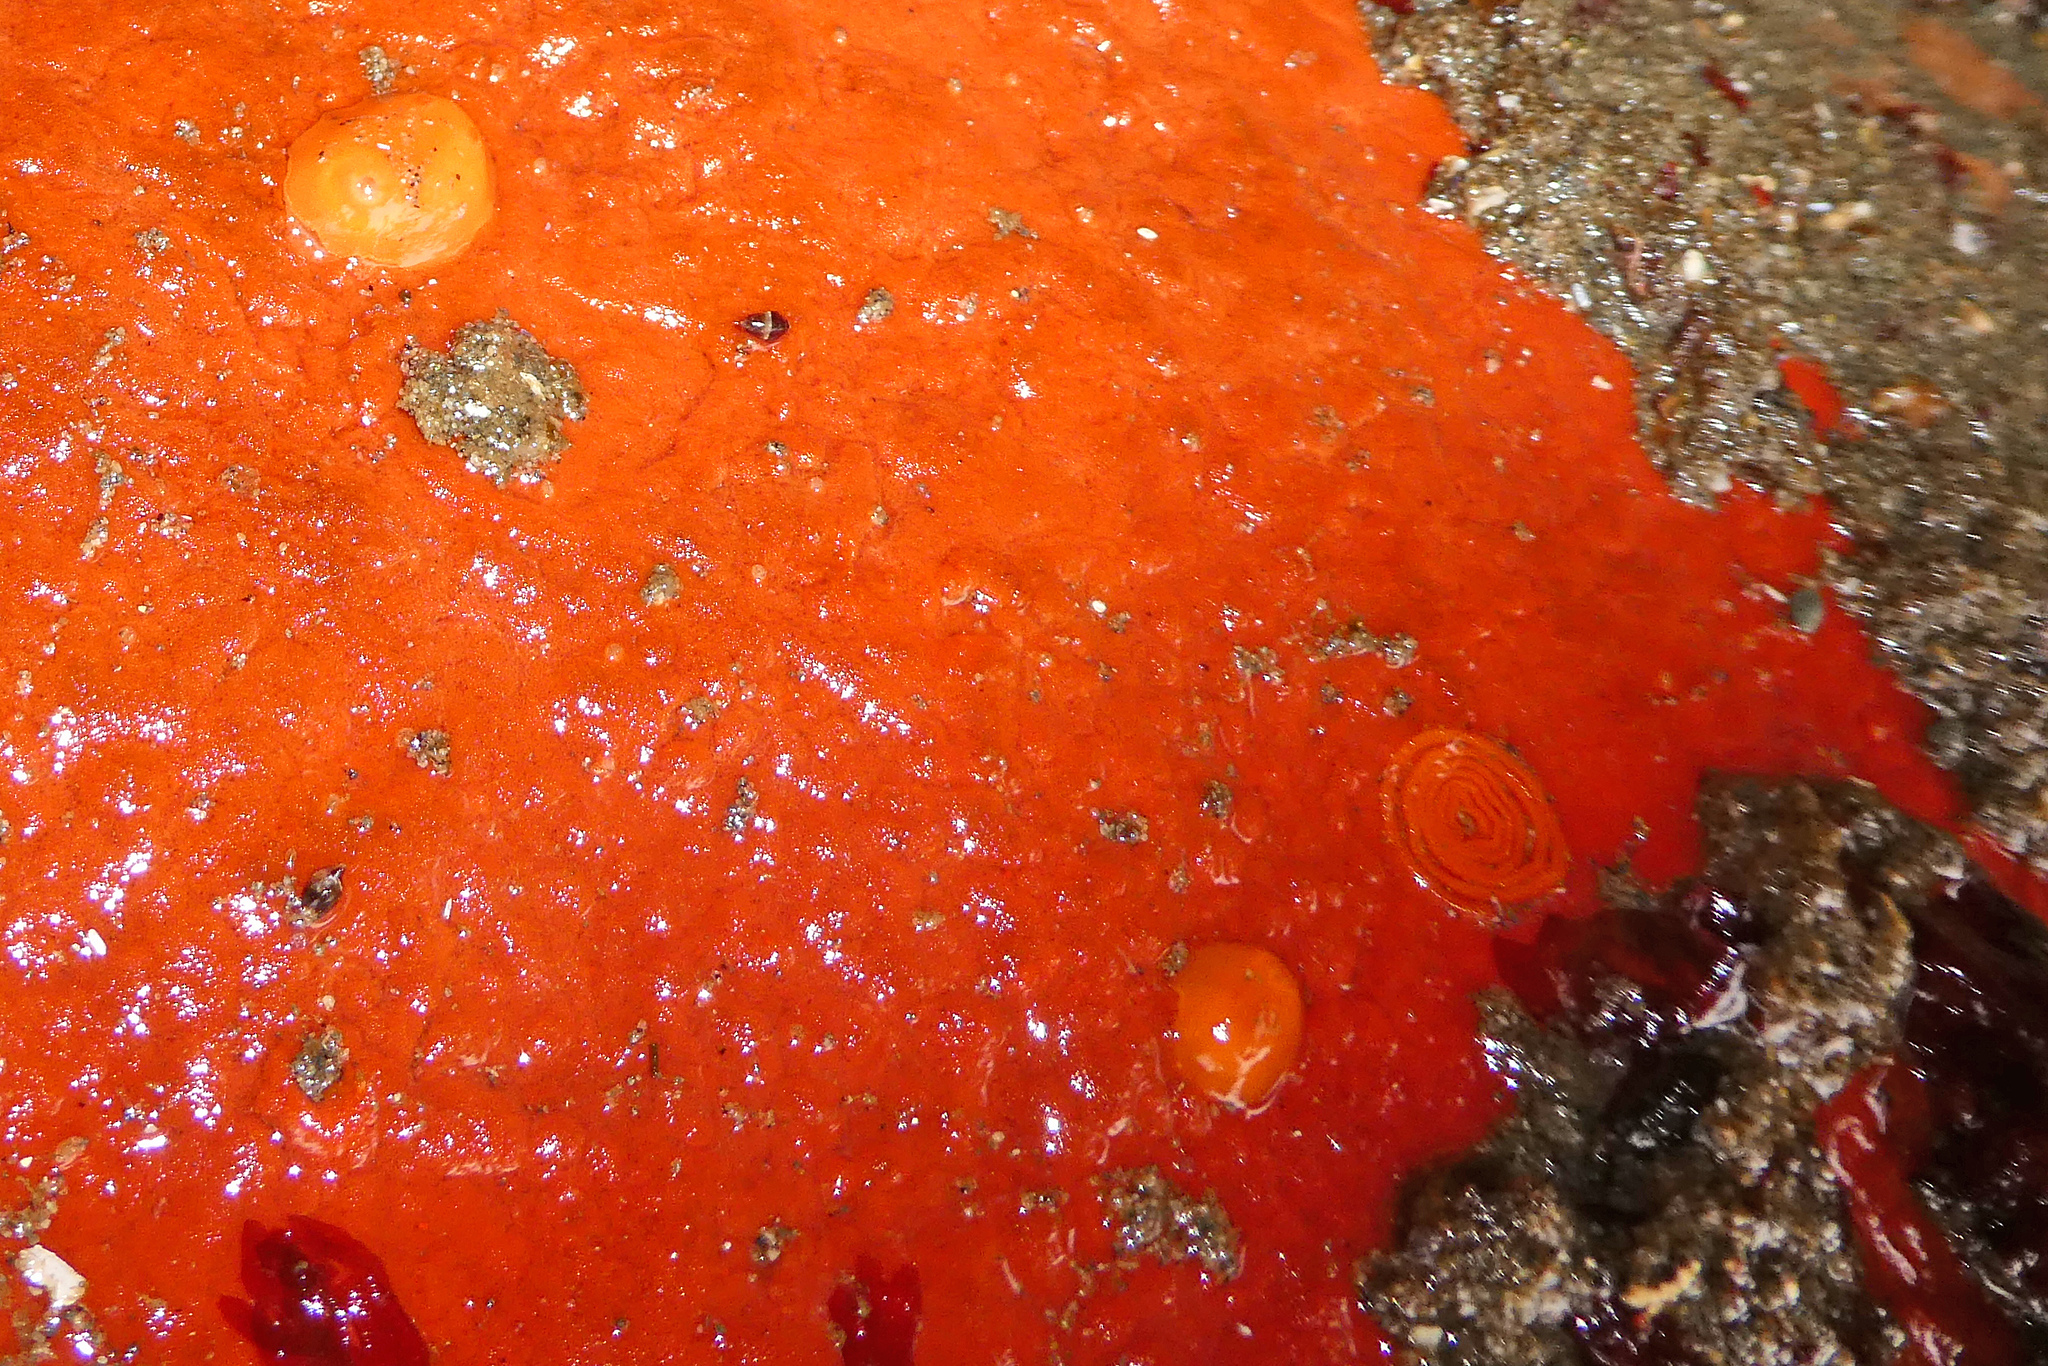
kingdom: Animalia
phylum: Mollusca
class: Gastropoda
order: Nudibranchia
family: Discodorididae
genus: Rostanga
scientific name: Rostanga pulchra
